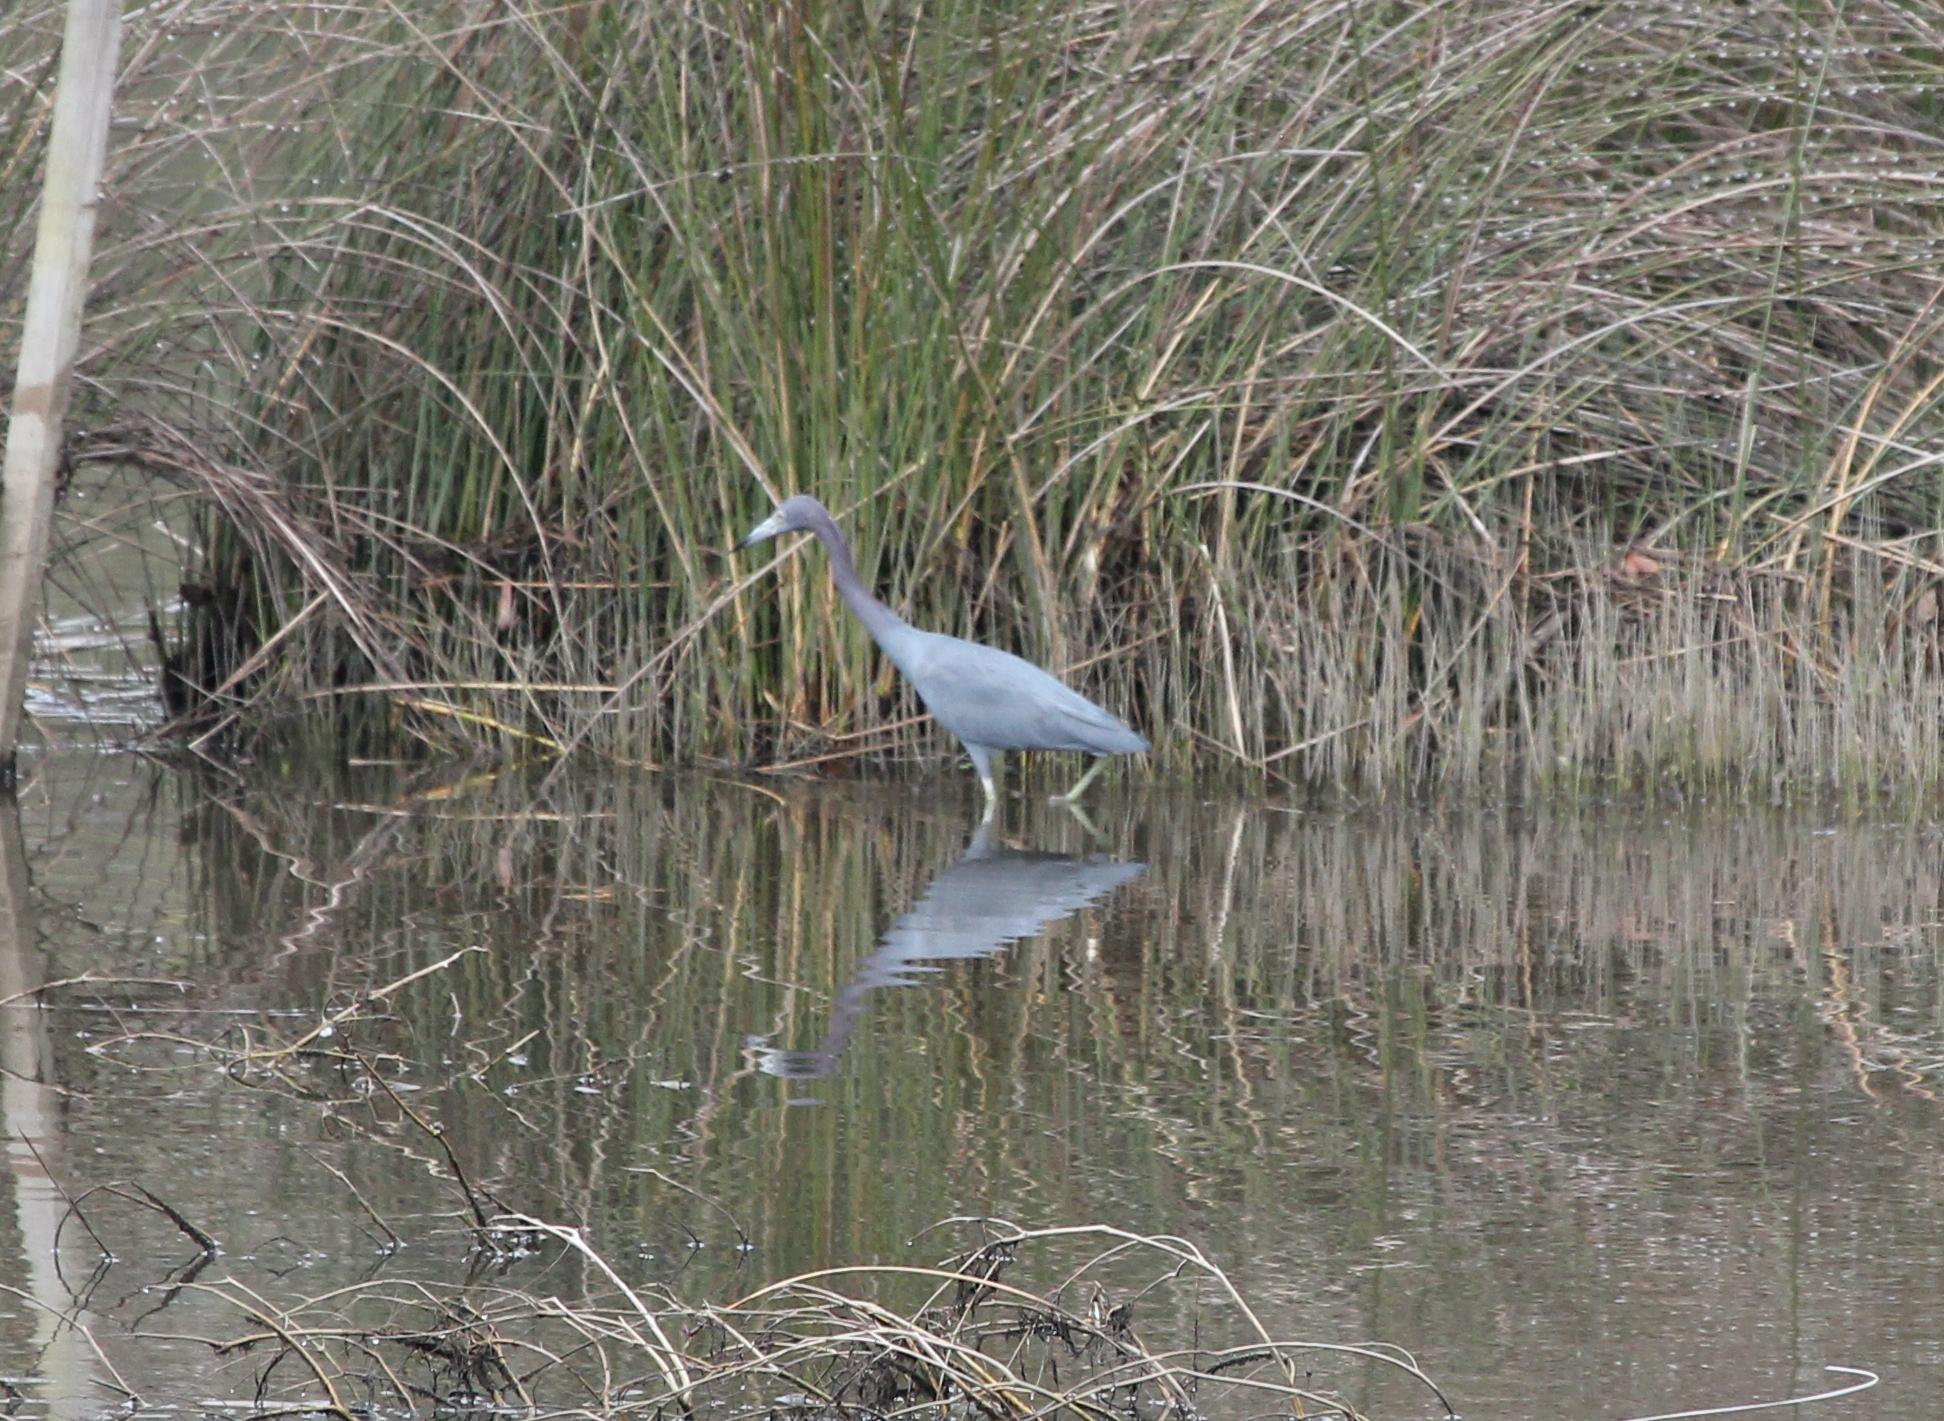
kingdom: Animalia
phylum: Chordata
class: Aves
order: Pelecaniformes
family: Ardeidae
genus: Egretta
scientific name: Egretta caerulea
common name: Little blue heron
